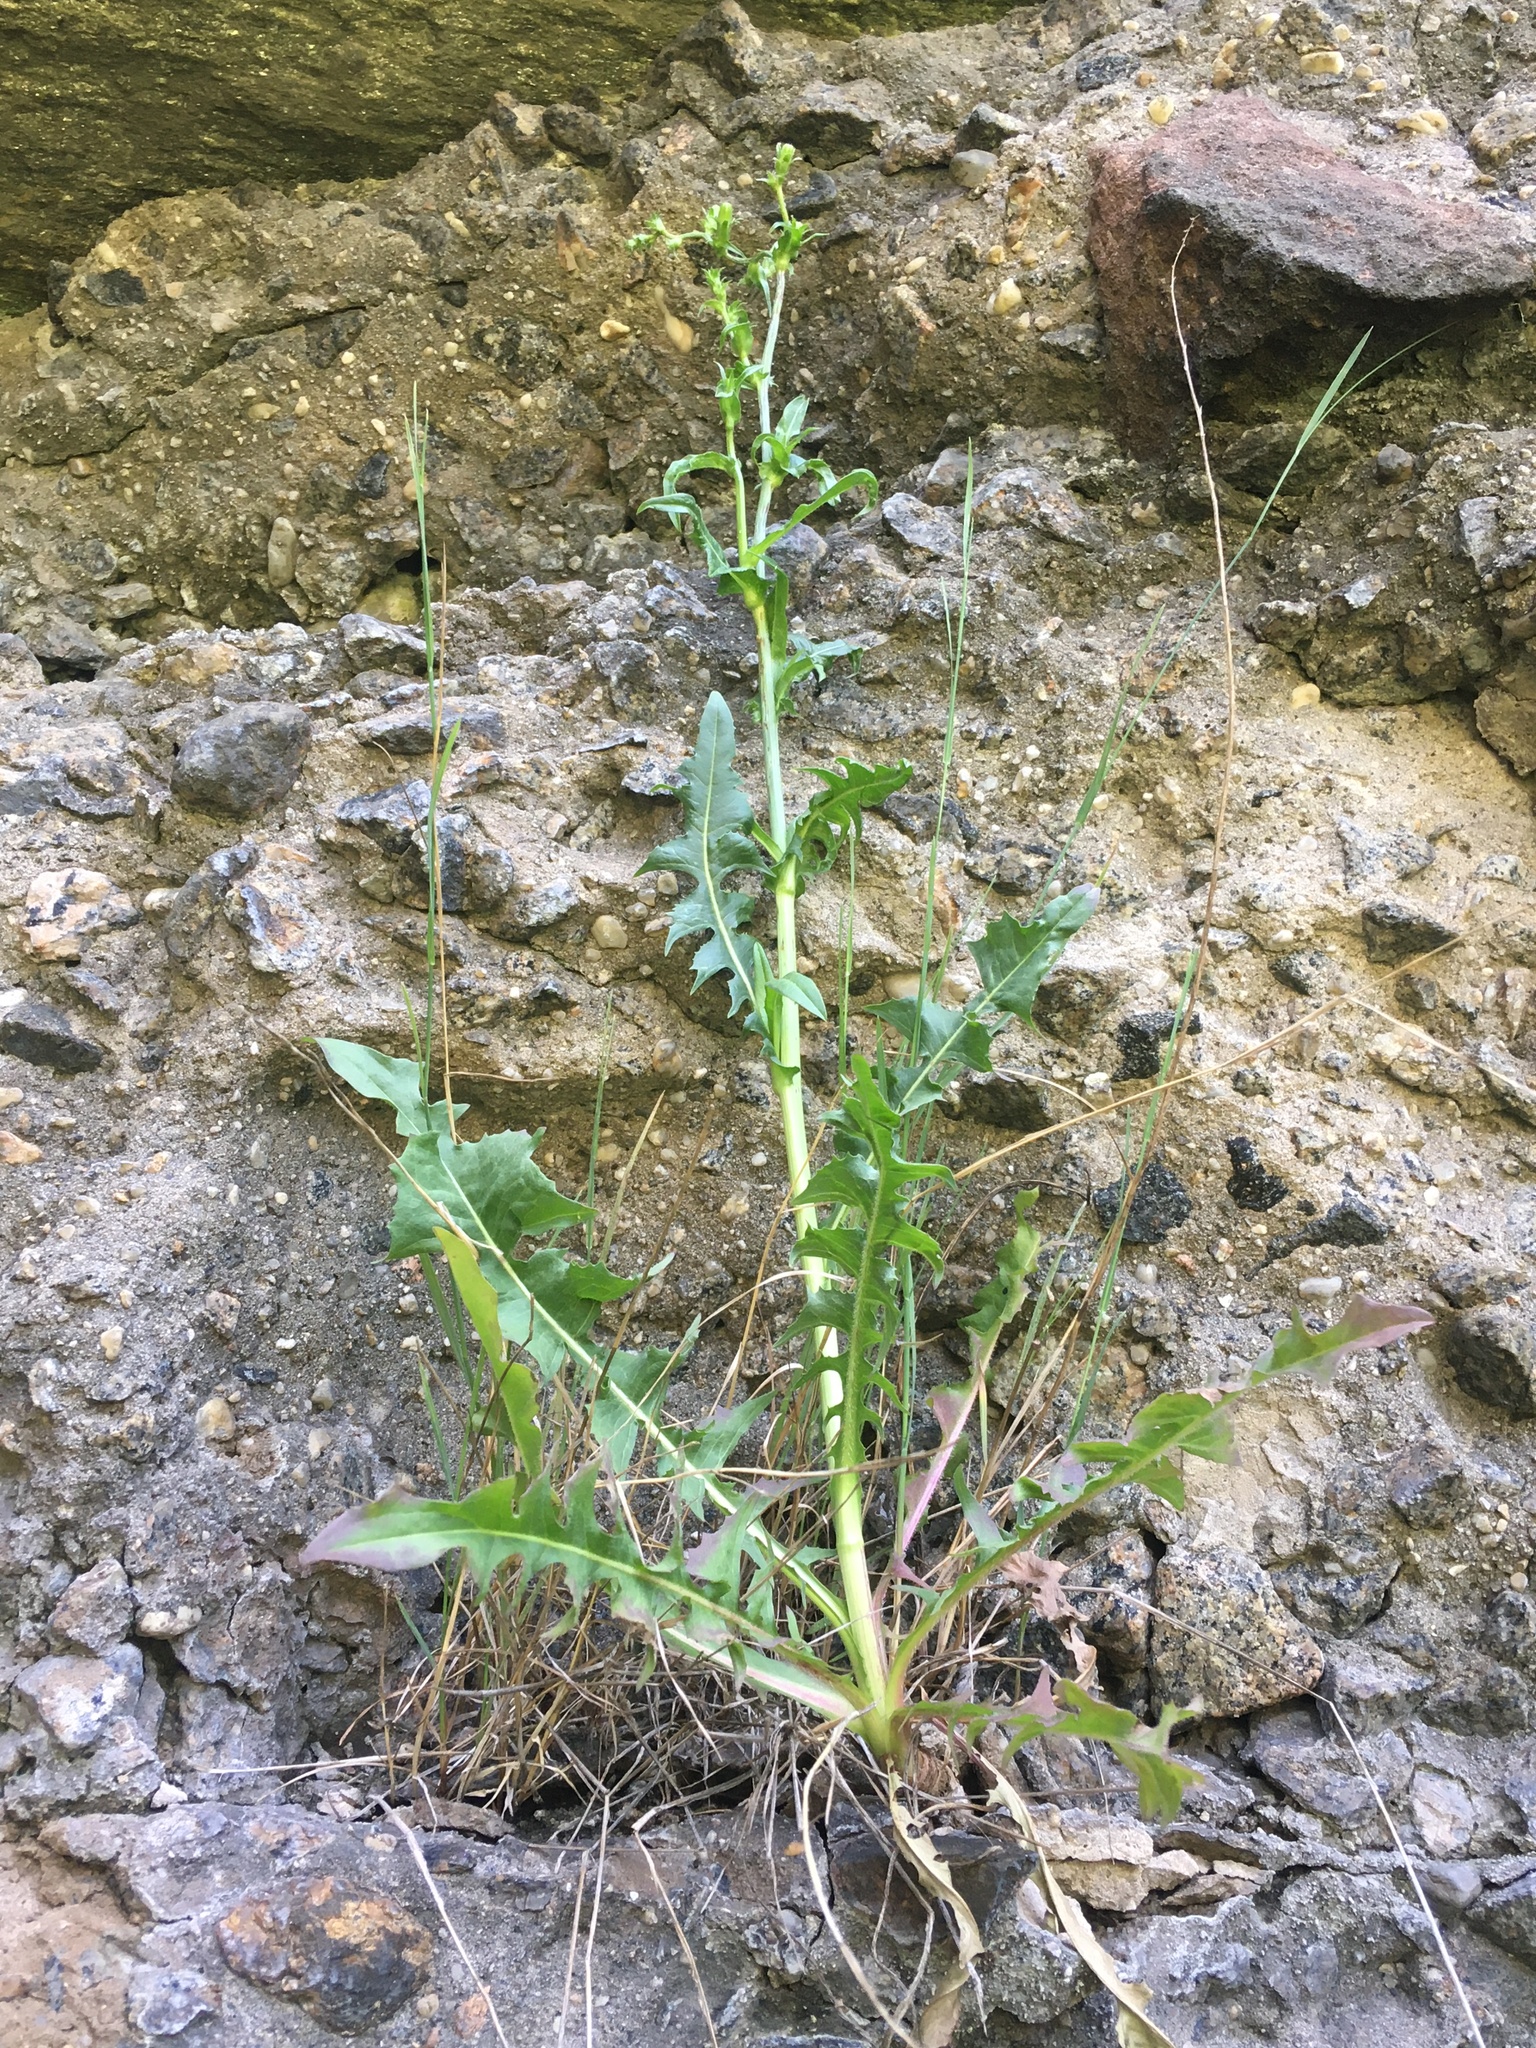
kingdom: Plantae
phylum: Tracheophyta
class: Magnoliopsida
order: Asterales
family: Asteraceae
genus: Cichorium
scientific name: Cichorium intybus
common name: Chicory
